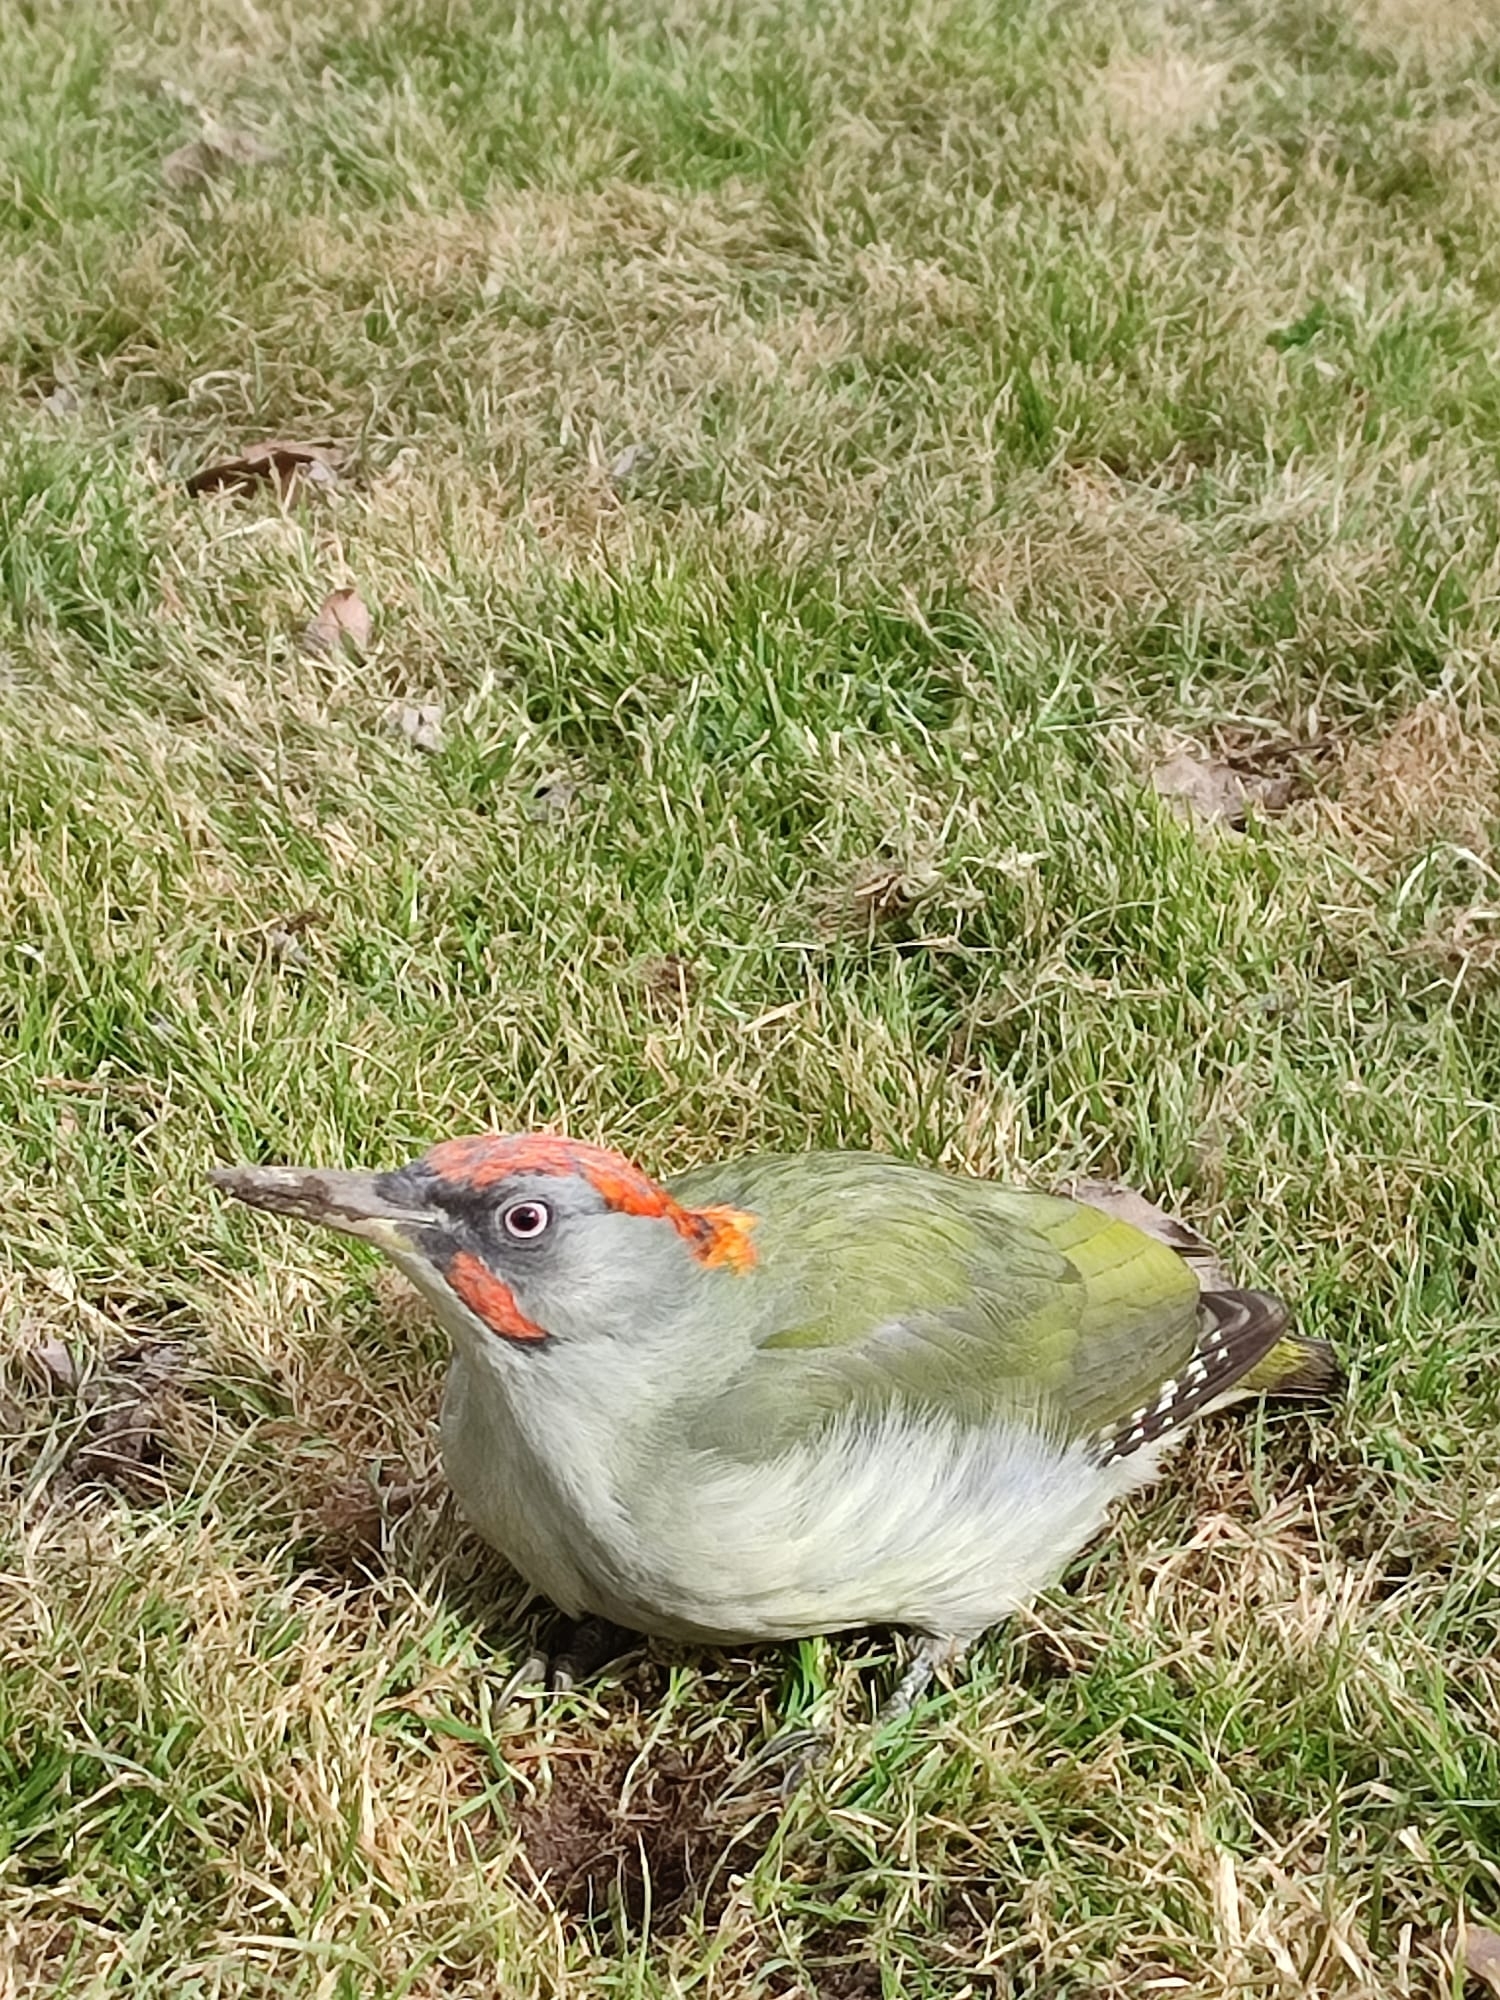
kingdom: Animalia
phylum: Chordata
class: Aves
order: Piciformes
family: Picidae
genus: Picus
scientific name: Picus sharpei
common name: Iberian green woodpecker
